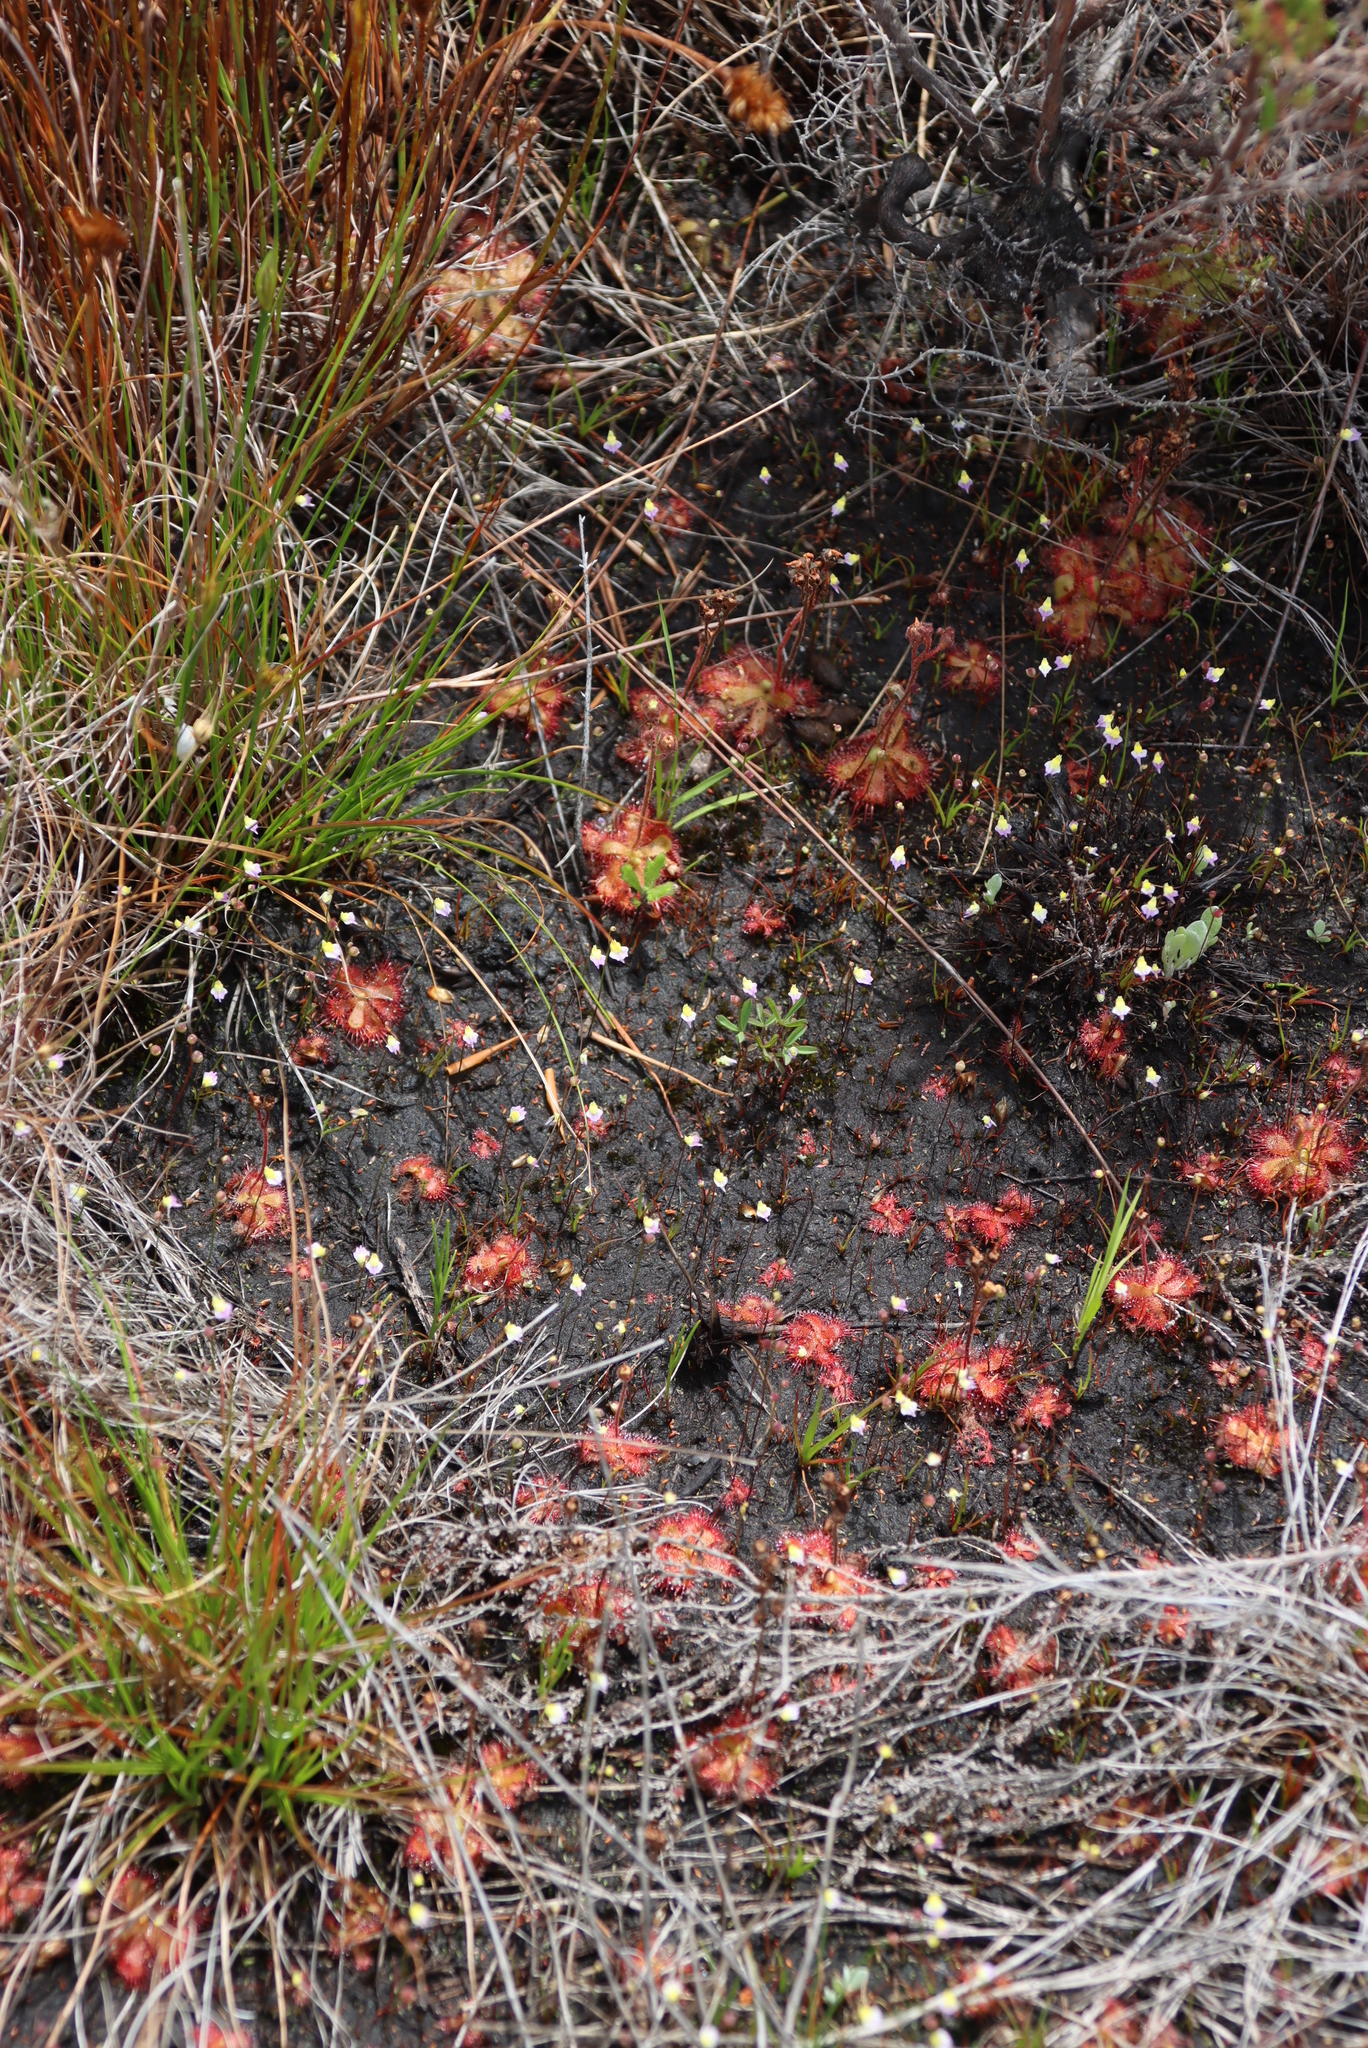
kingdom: Plantae
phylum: Tracheophyta
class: Magnoliopsida
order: Lamiales
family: Lentibulariaceae
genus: Utricularia
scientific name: Utricularia bisquamata
